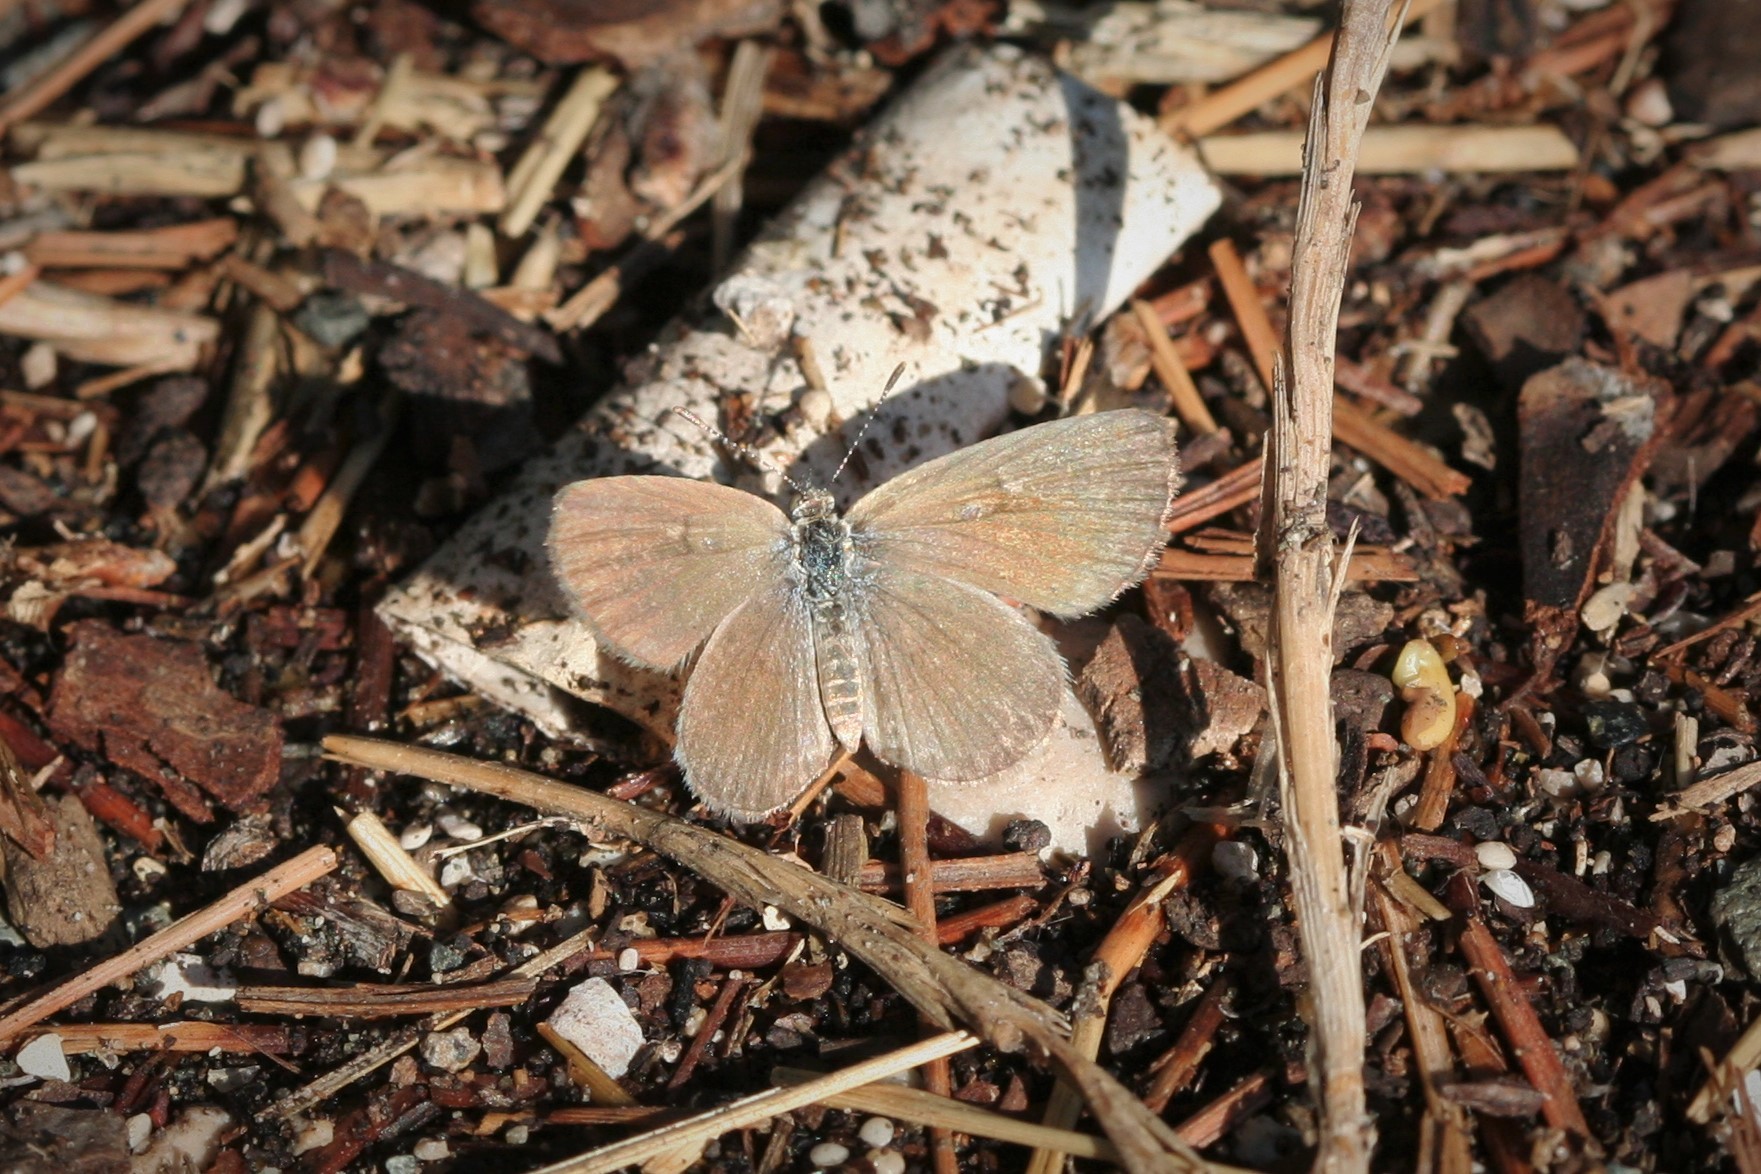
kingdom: Animalia
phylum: Arthropoda
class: Insecta
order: Lepidoptera
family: Lycaenidae
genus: Zizeeria
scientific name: Zizeeria karsandra
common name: Dark grass blue
